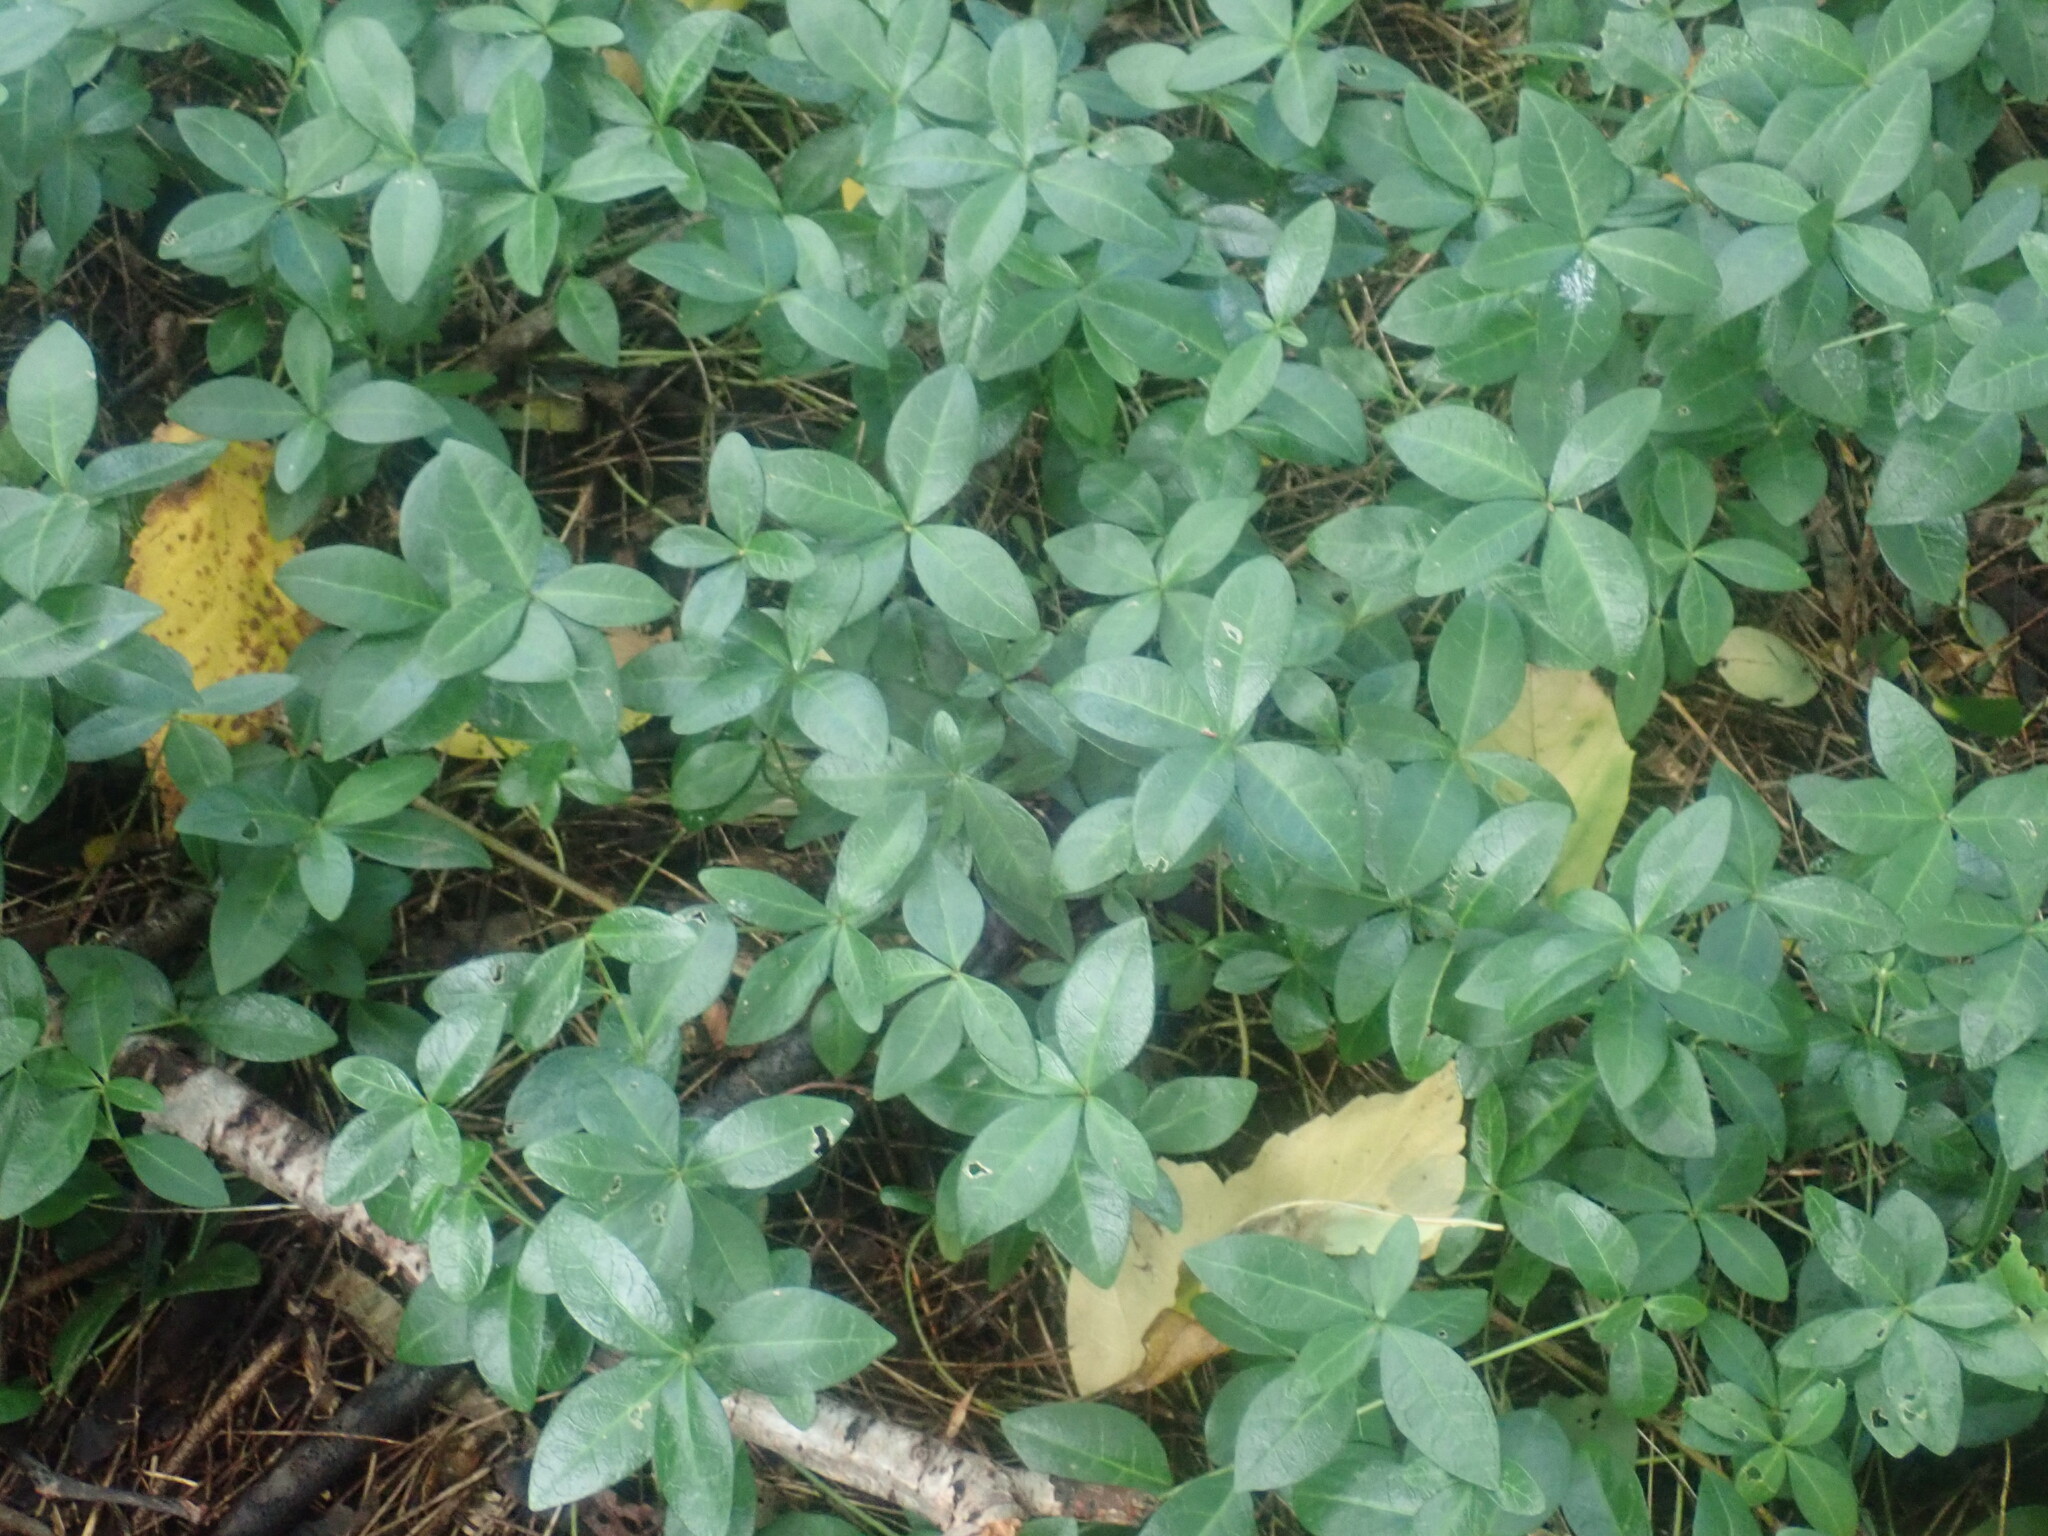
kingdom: Plantae
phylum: Tracheophyta
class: Magnoliopsida
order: Gentianales
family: Apocynaceae
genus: Vinca
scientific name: Vinca minor
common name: Lesser periwinkle
